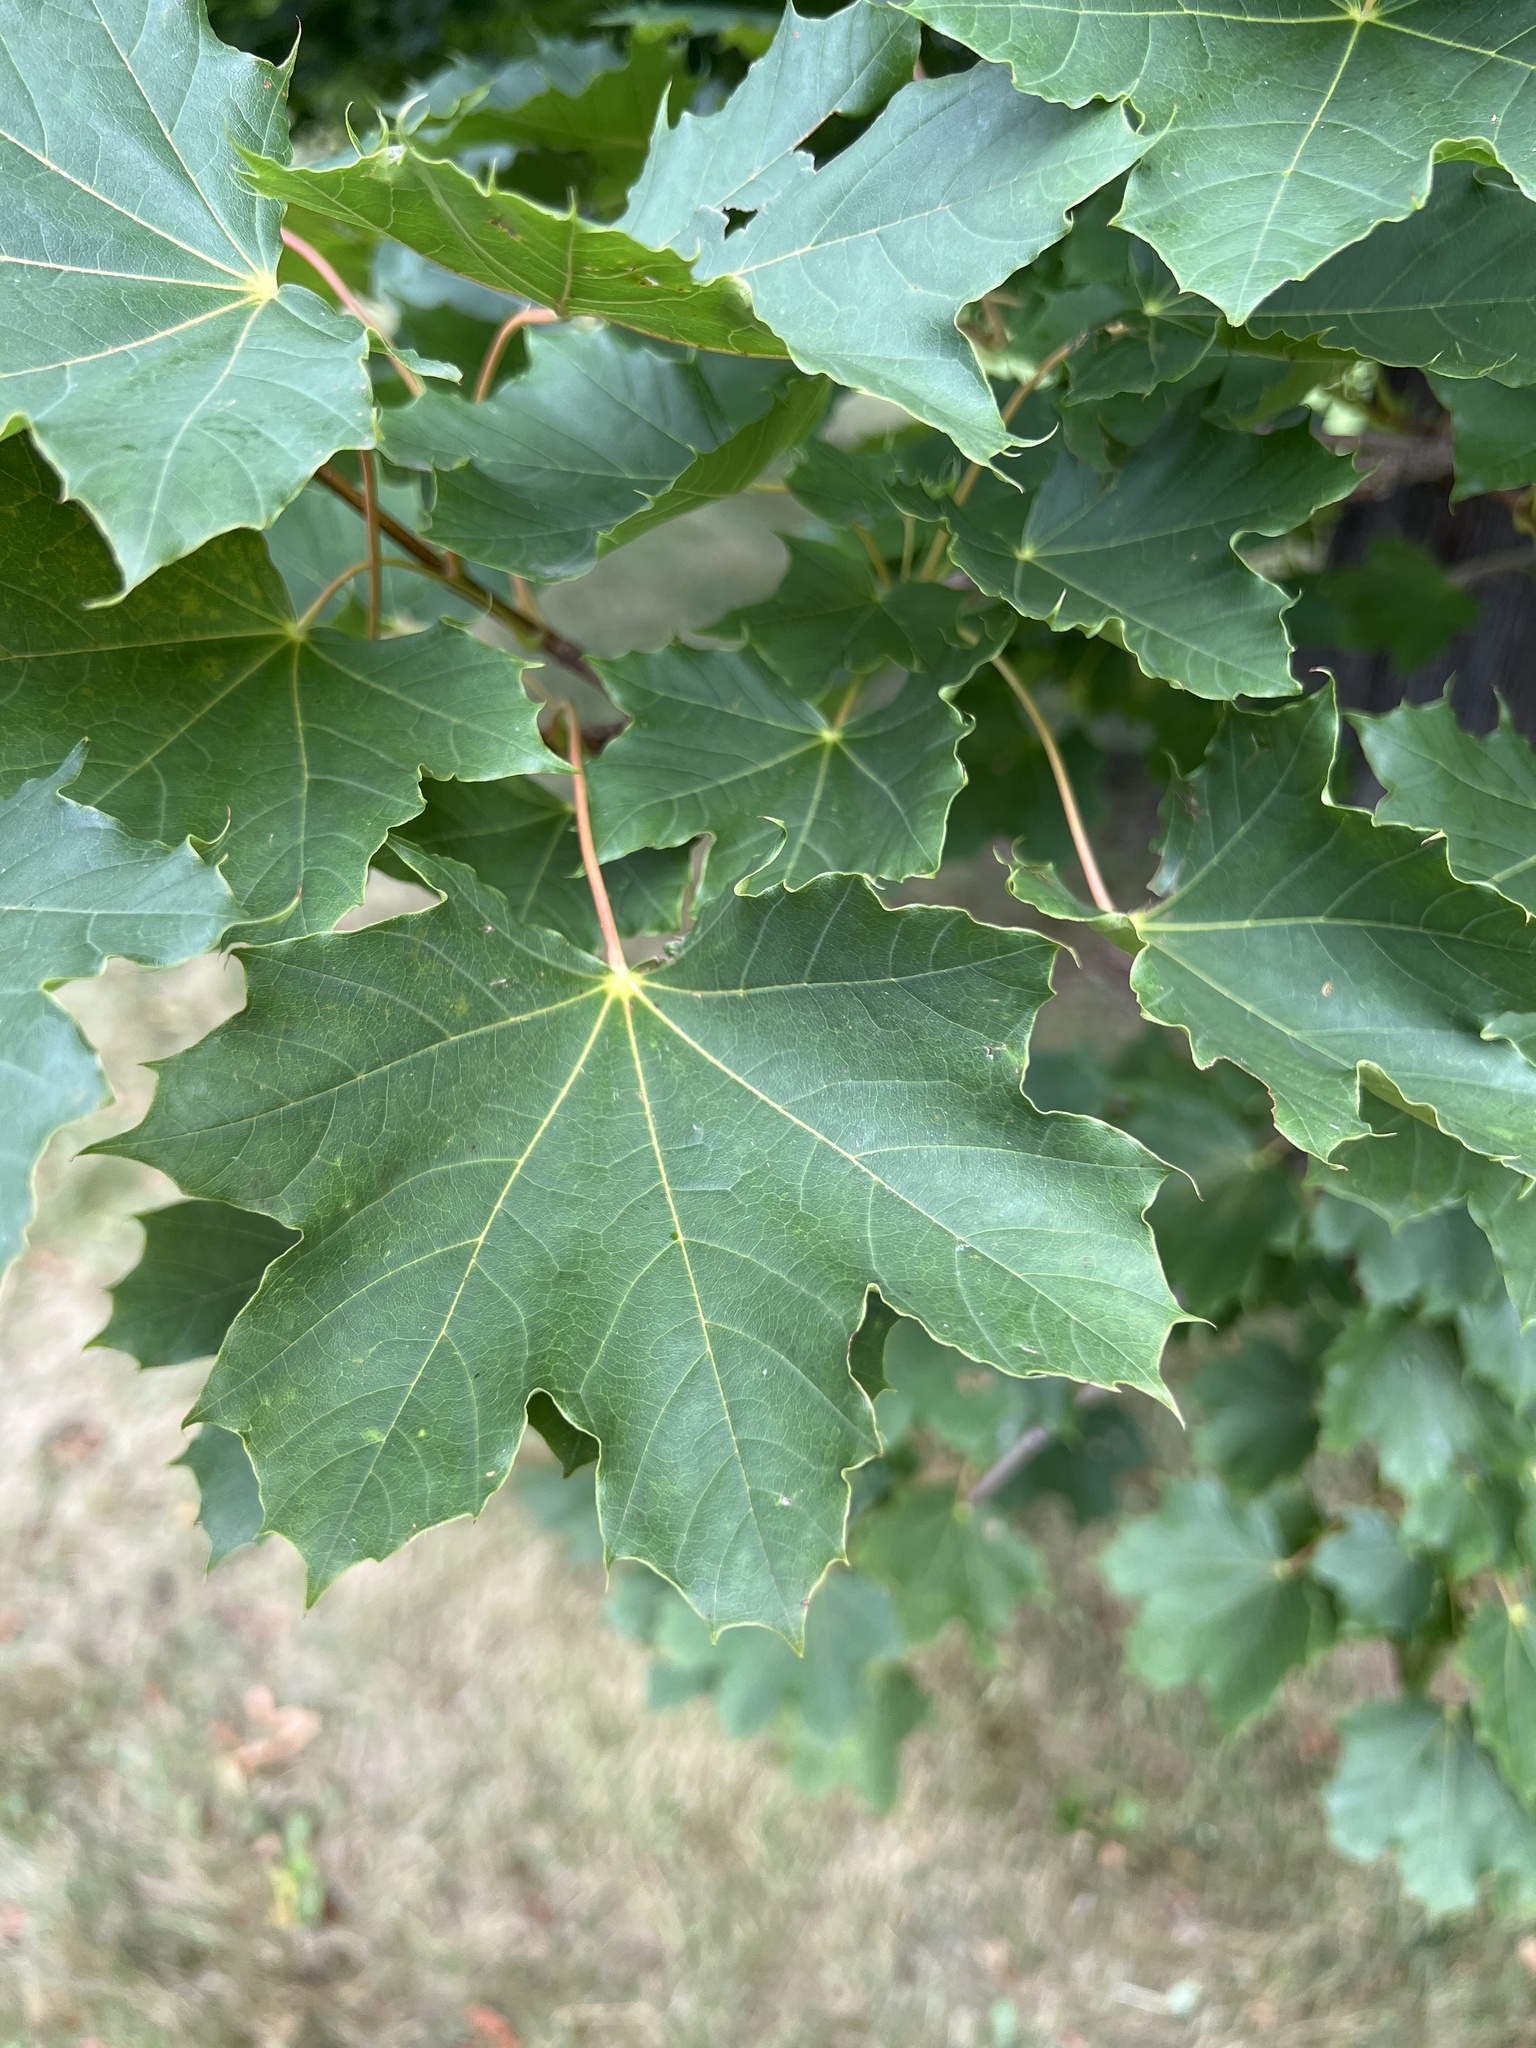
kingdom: Plantae
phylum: Tracheophyta
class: Magnoliopsida
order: Sapindales
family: Sapindaceae
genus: Acer
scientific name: Acer platanoides
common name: Norway maple
